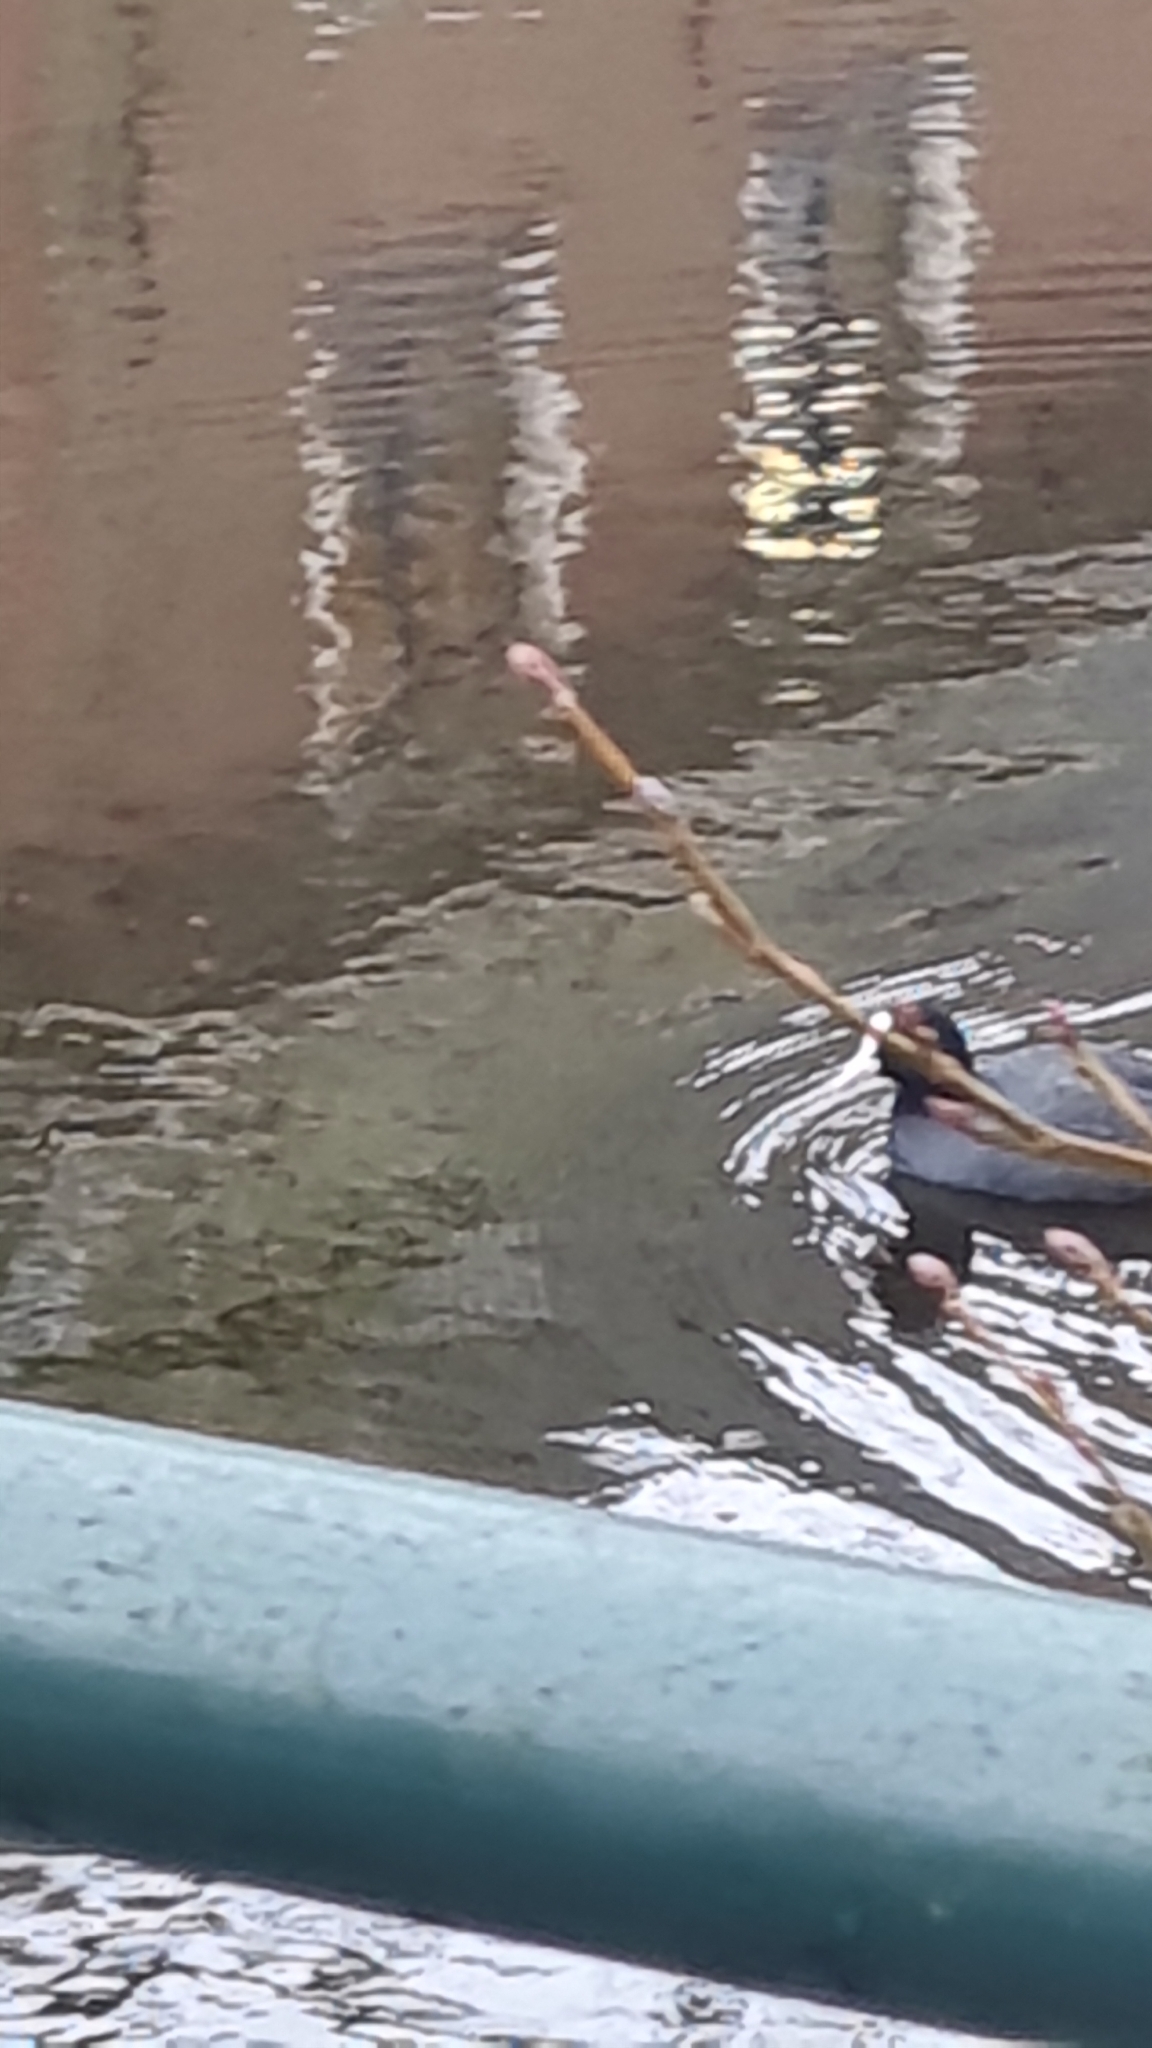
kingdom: Animalia
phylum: Chordata
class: Aves
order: Gruiformes
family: Rallidae
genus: Fulica
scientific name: Fulica atra
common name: Eurasian coot
